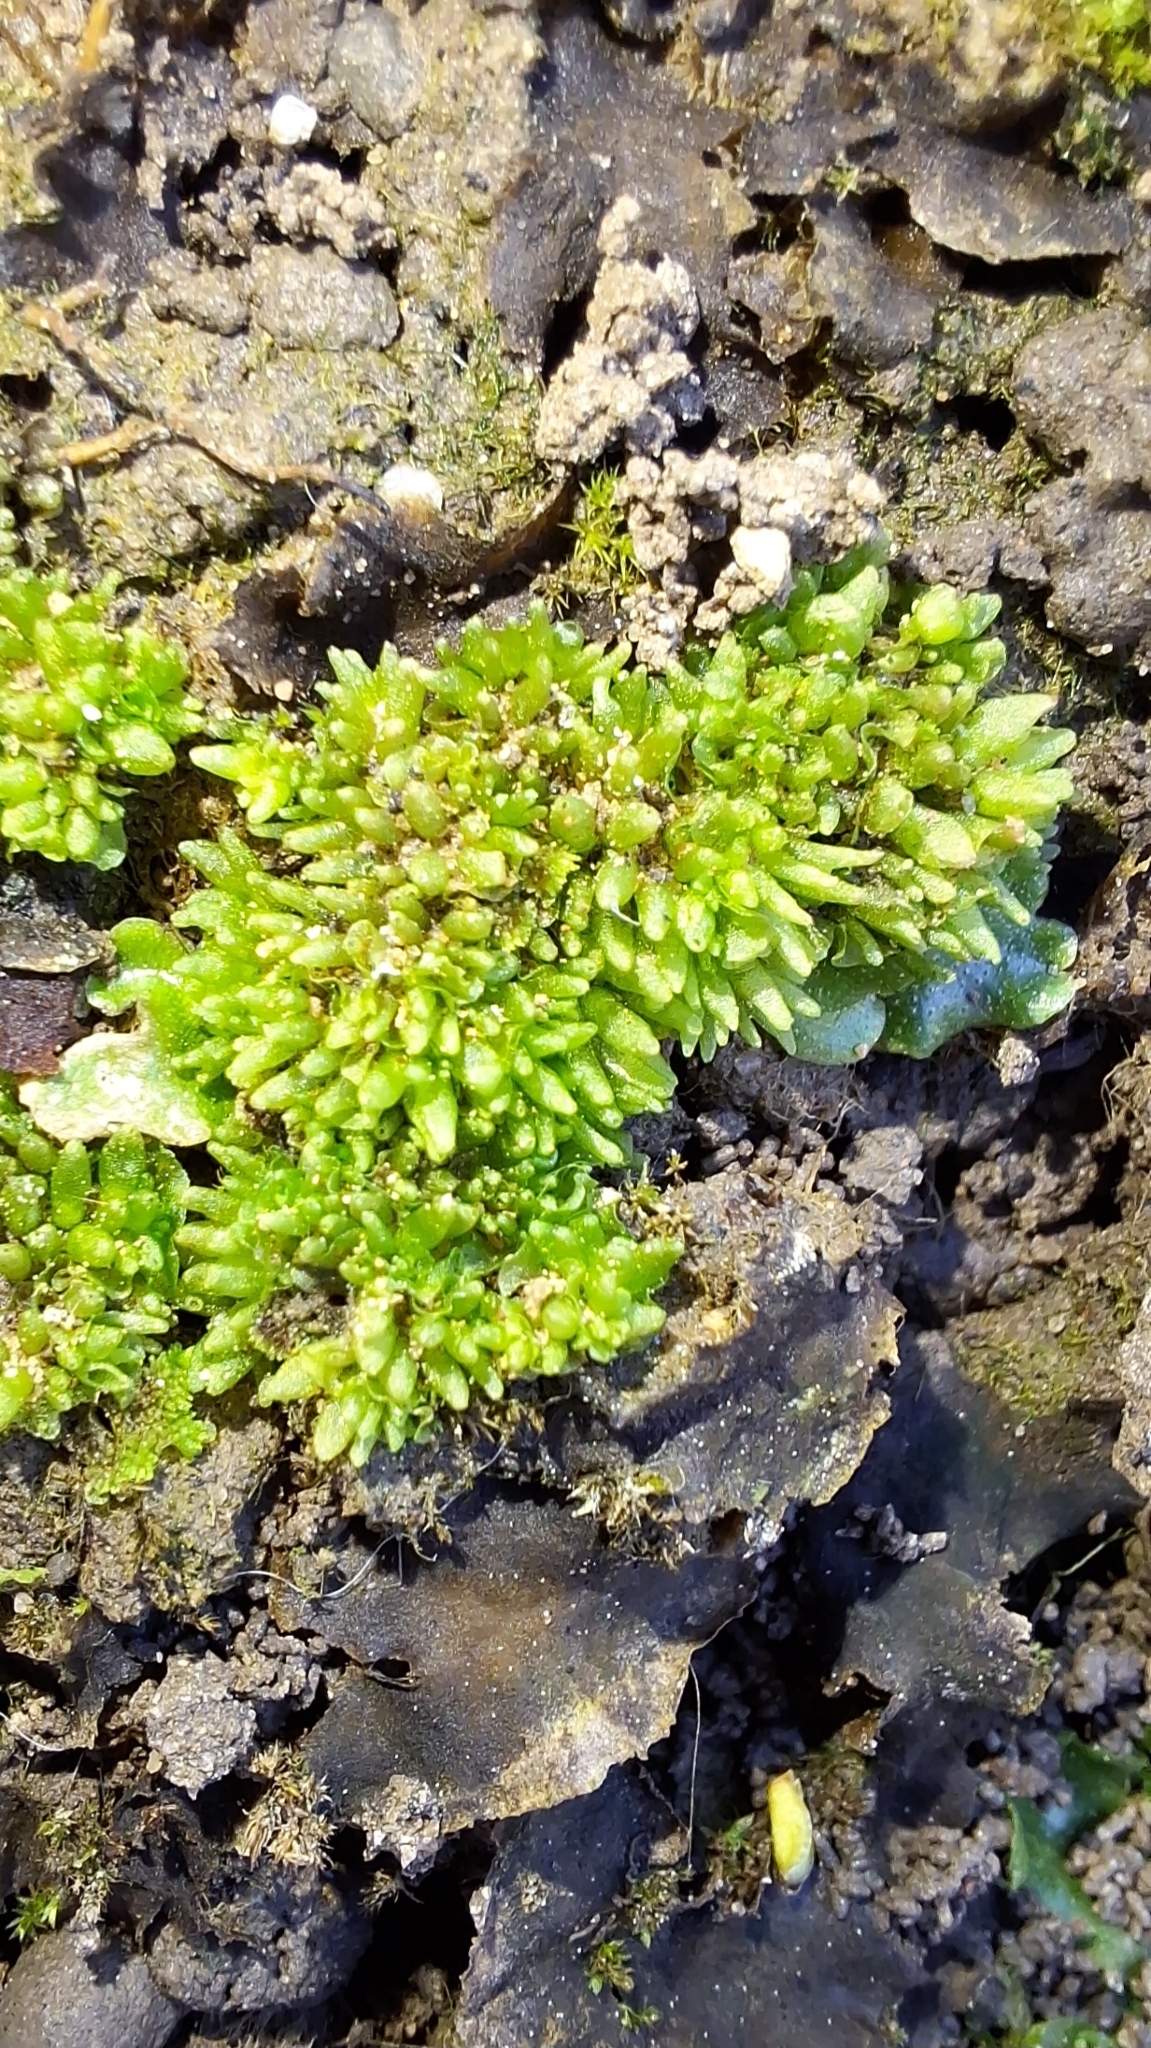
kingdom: Plantae
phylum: Marchantiophyta
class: Marchantiopsida
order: Sphaerocarpales
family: Sphaerocarpaceae
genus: Sphaerocarpos
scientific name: Sphaerocarpos texanus
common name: Texas balloonwort
